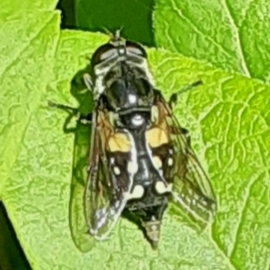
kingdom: Animalia
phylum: Arthropoda
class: Insecta
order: Diptera
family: Syrphidae
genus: Sericomyia
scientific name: Sericomyia lata
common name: White-spotted pond fly
